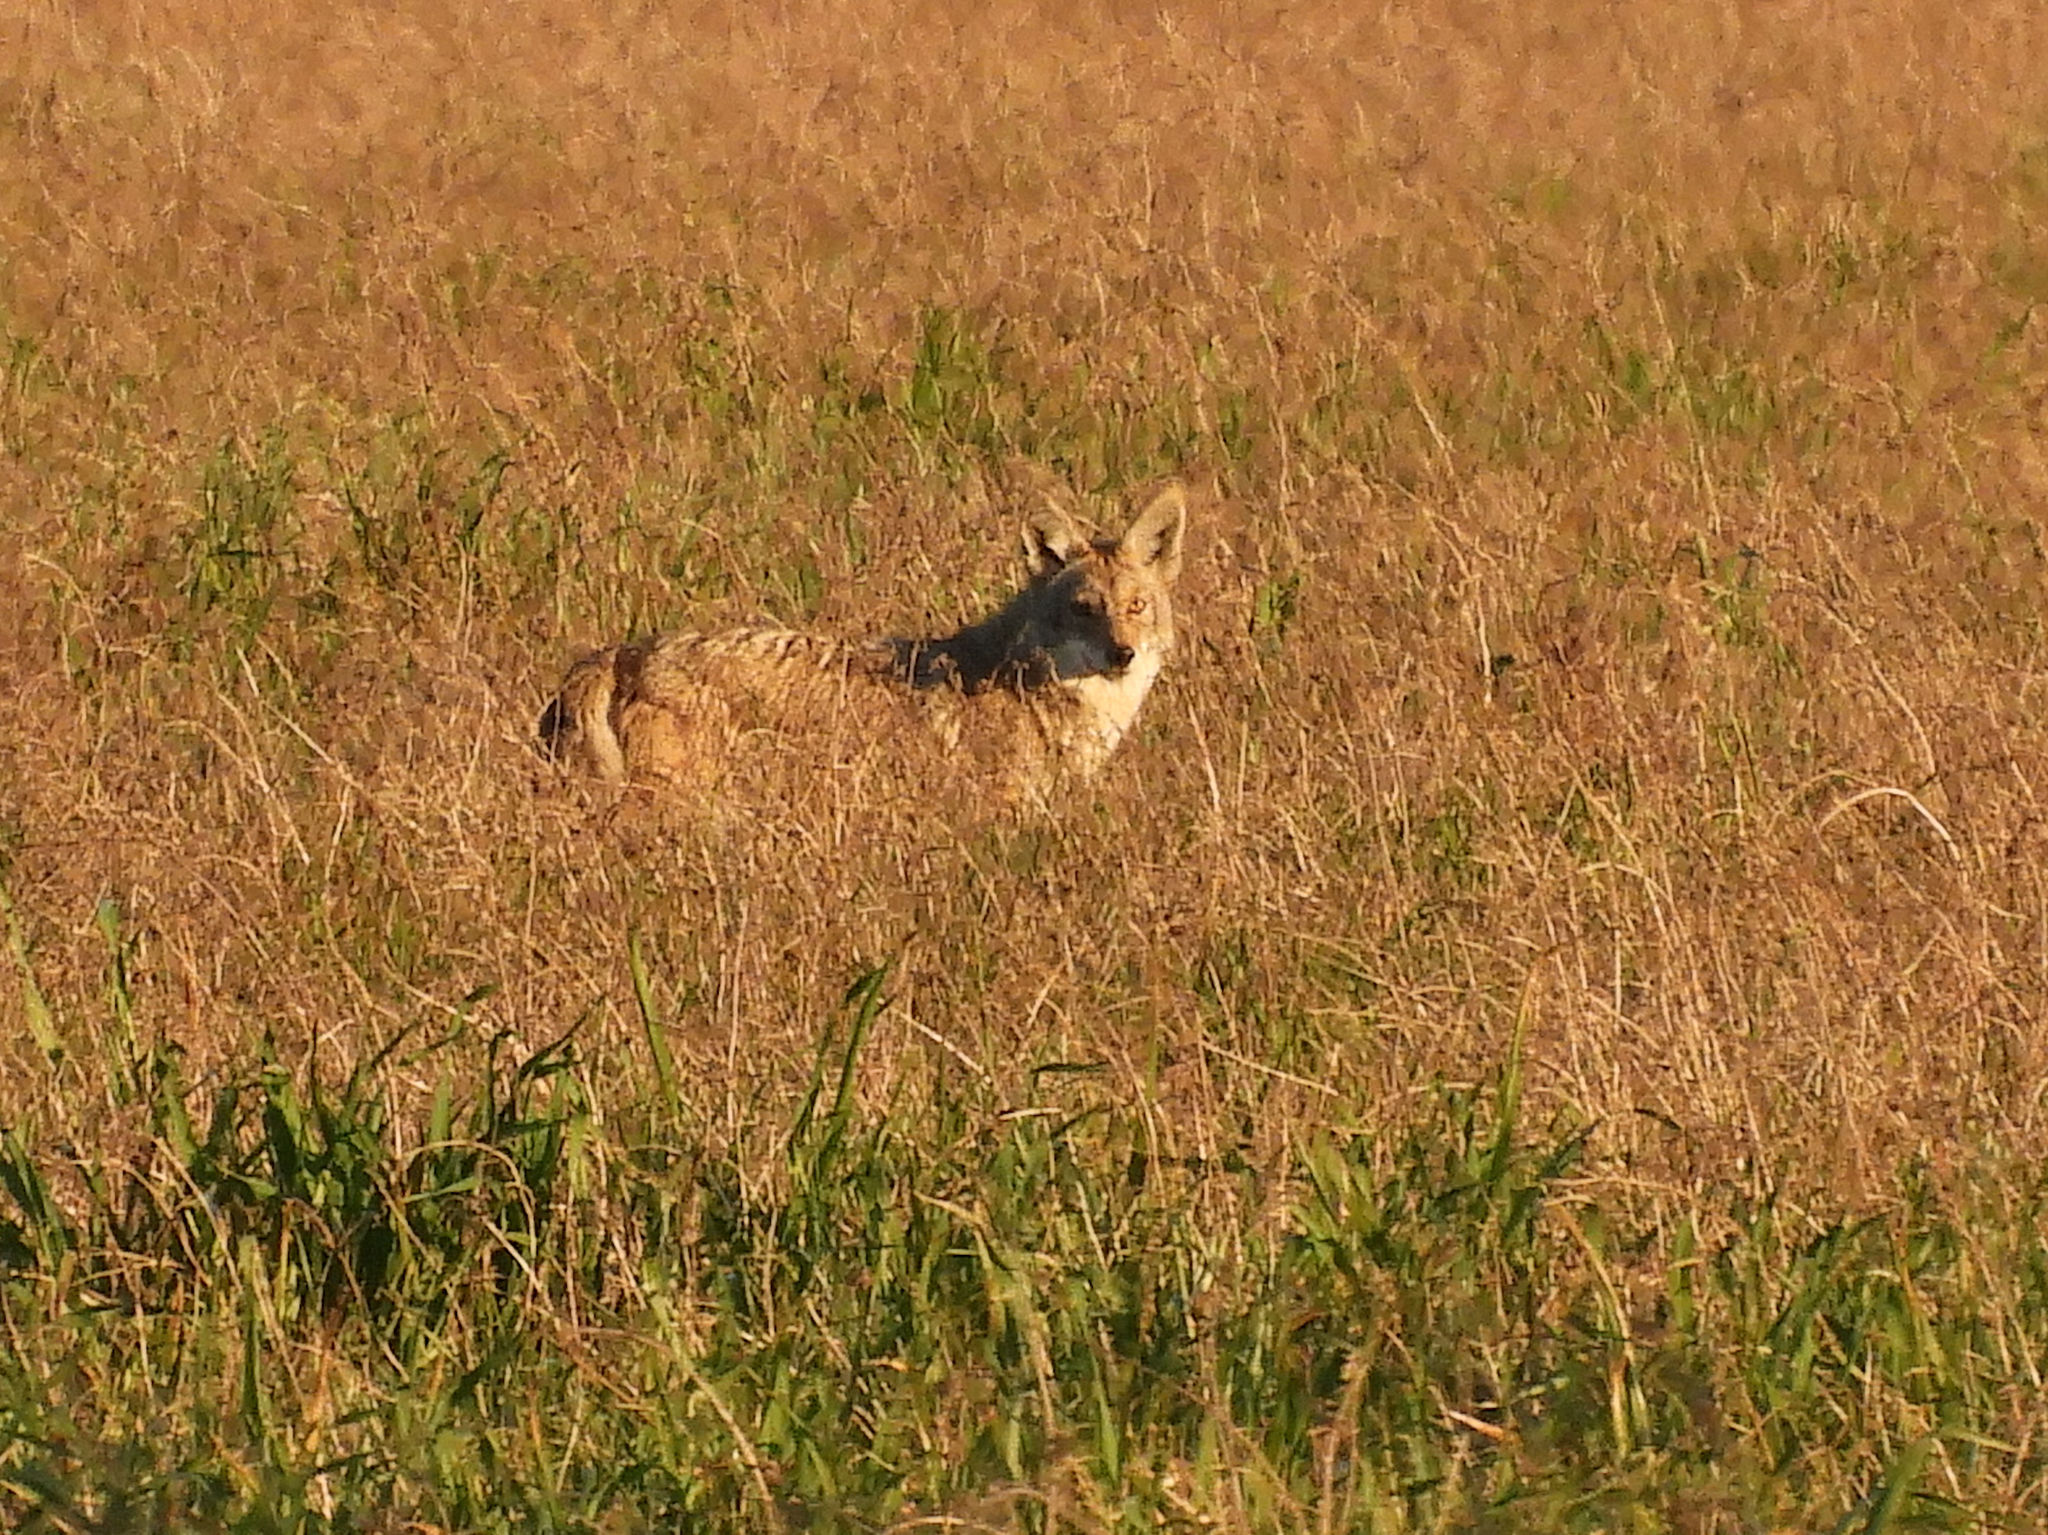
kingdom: Animalia
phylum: Chordata
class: Mammalia
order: Carnivora
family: Canidae
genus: Canis
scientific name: Canis latrans
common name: Coyote
